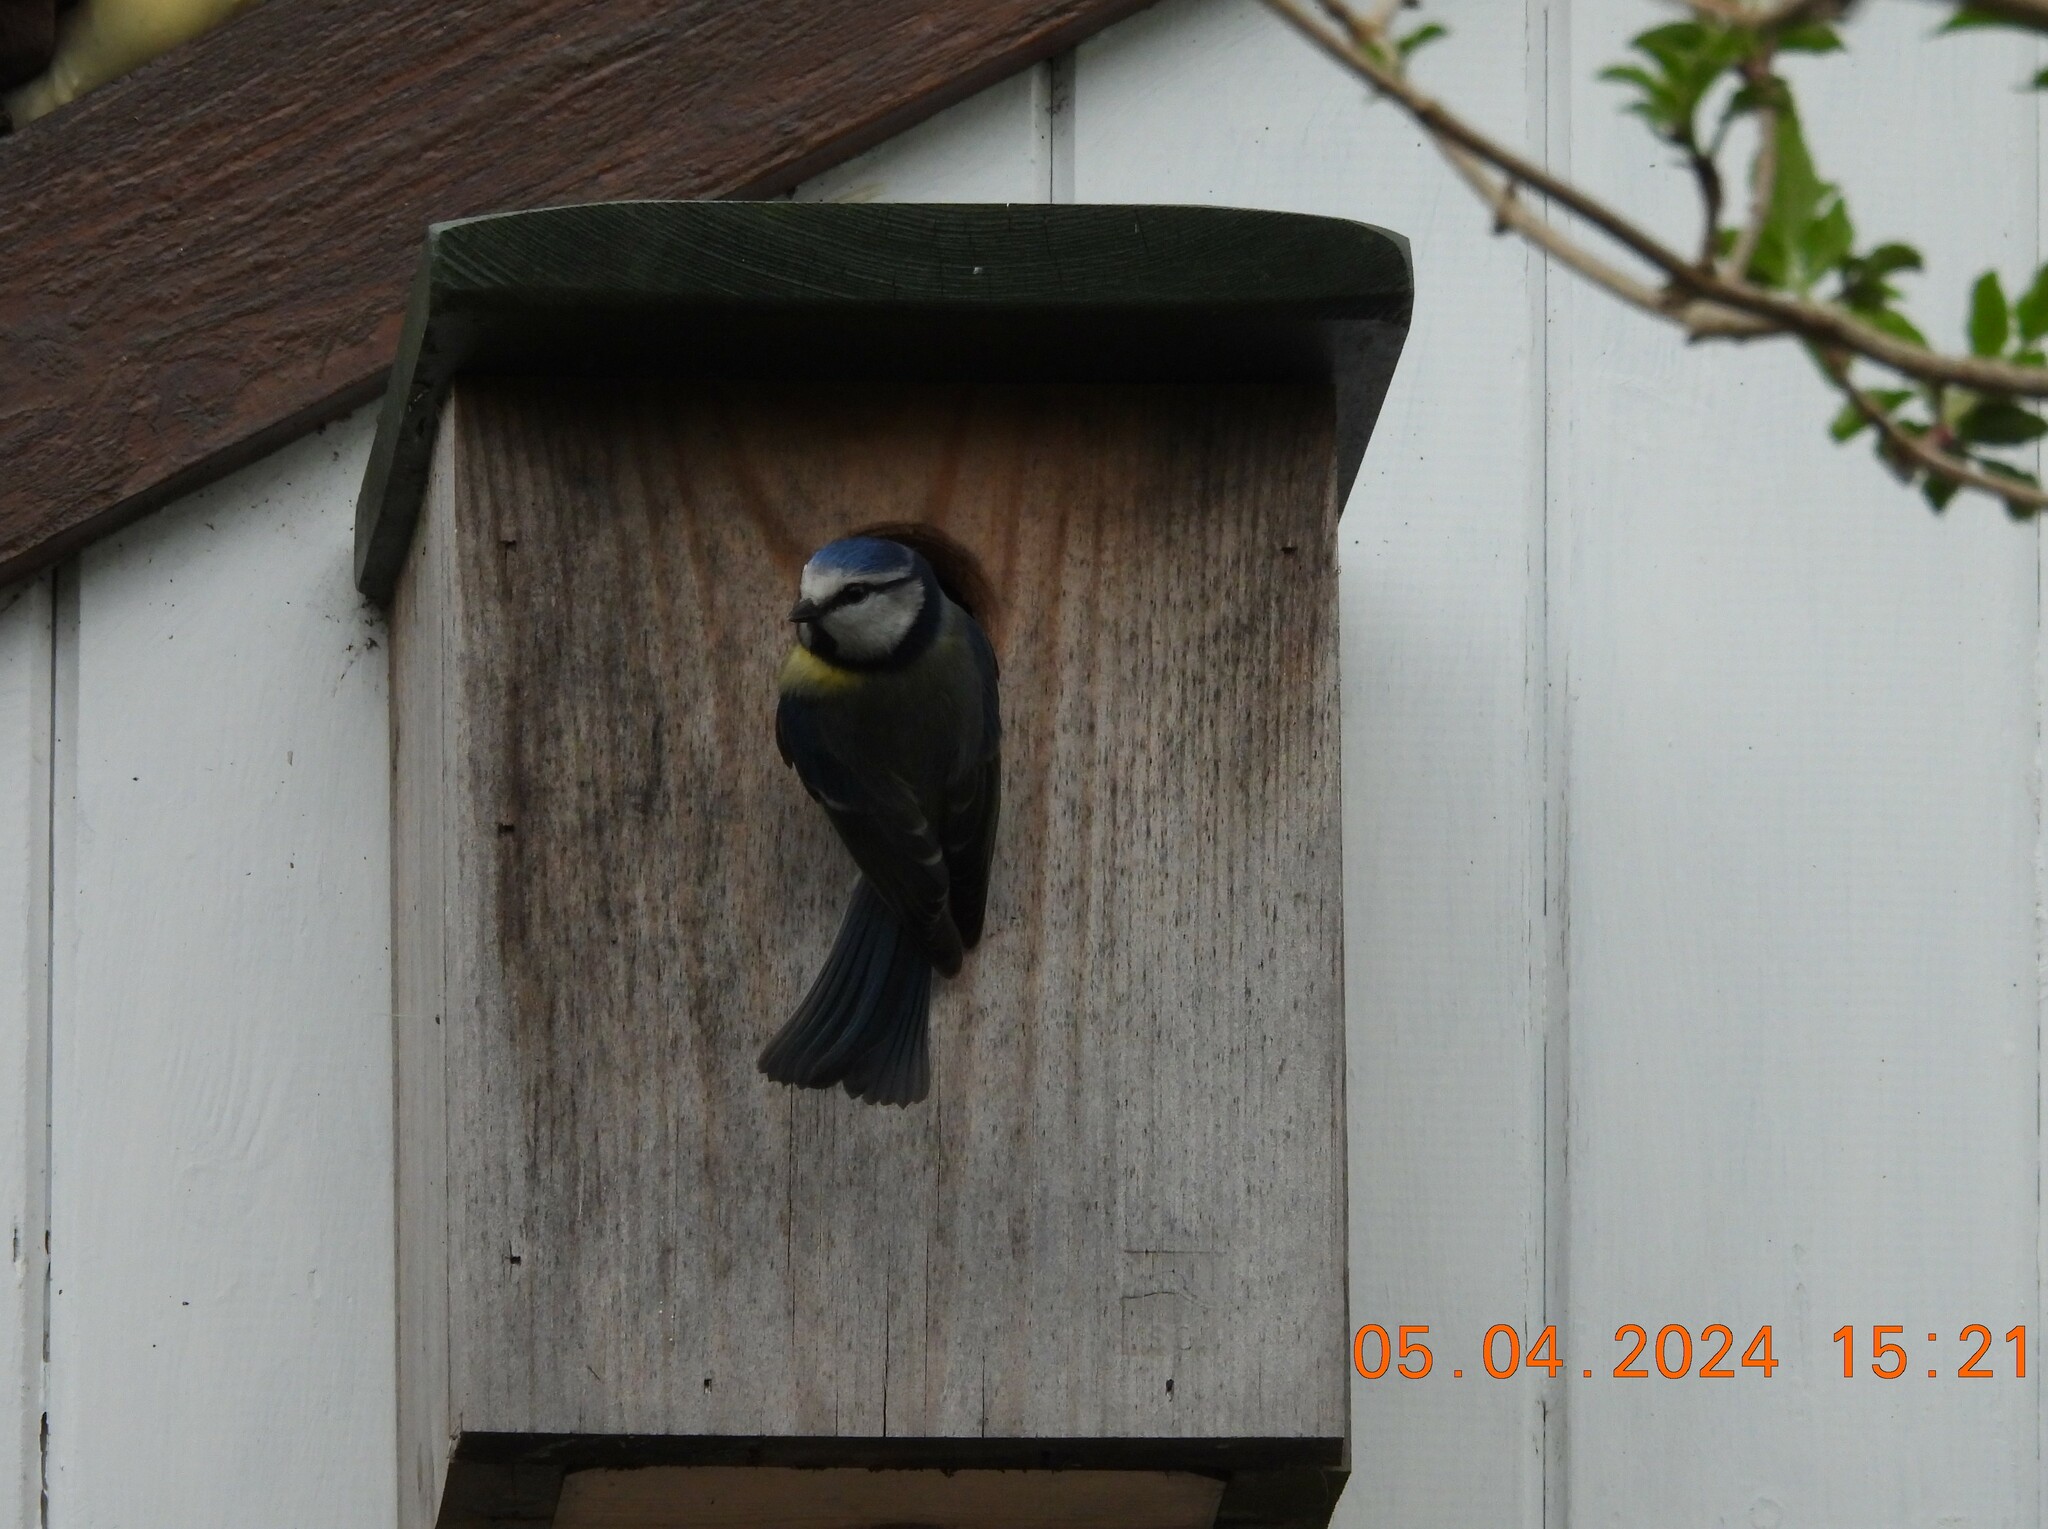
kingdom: Animalia
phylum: Chordata
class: Aves
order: Passeriformes
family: Paridae
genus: Cyanistes
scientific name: Cyanistes caeruleus
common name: Eurasian blue tit
